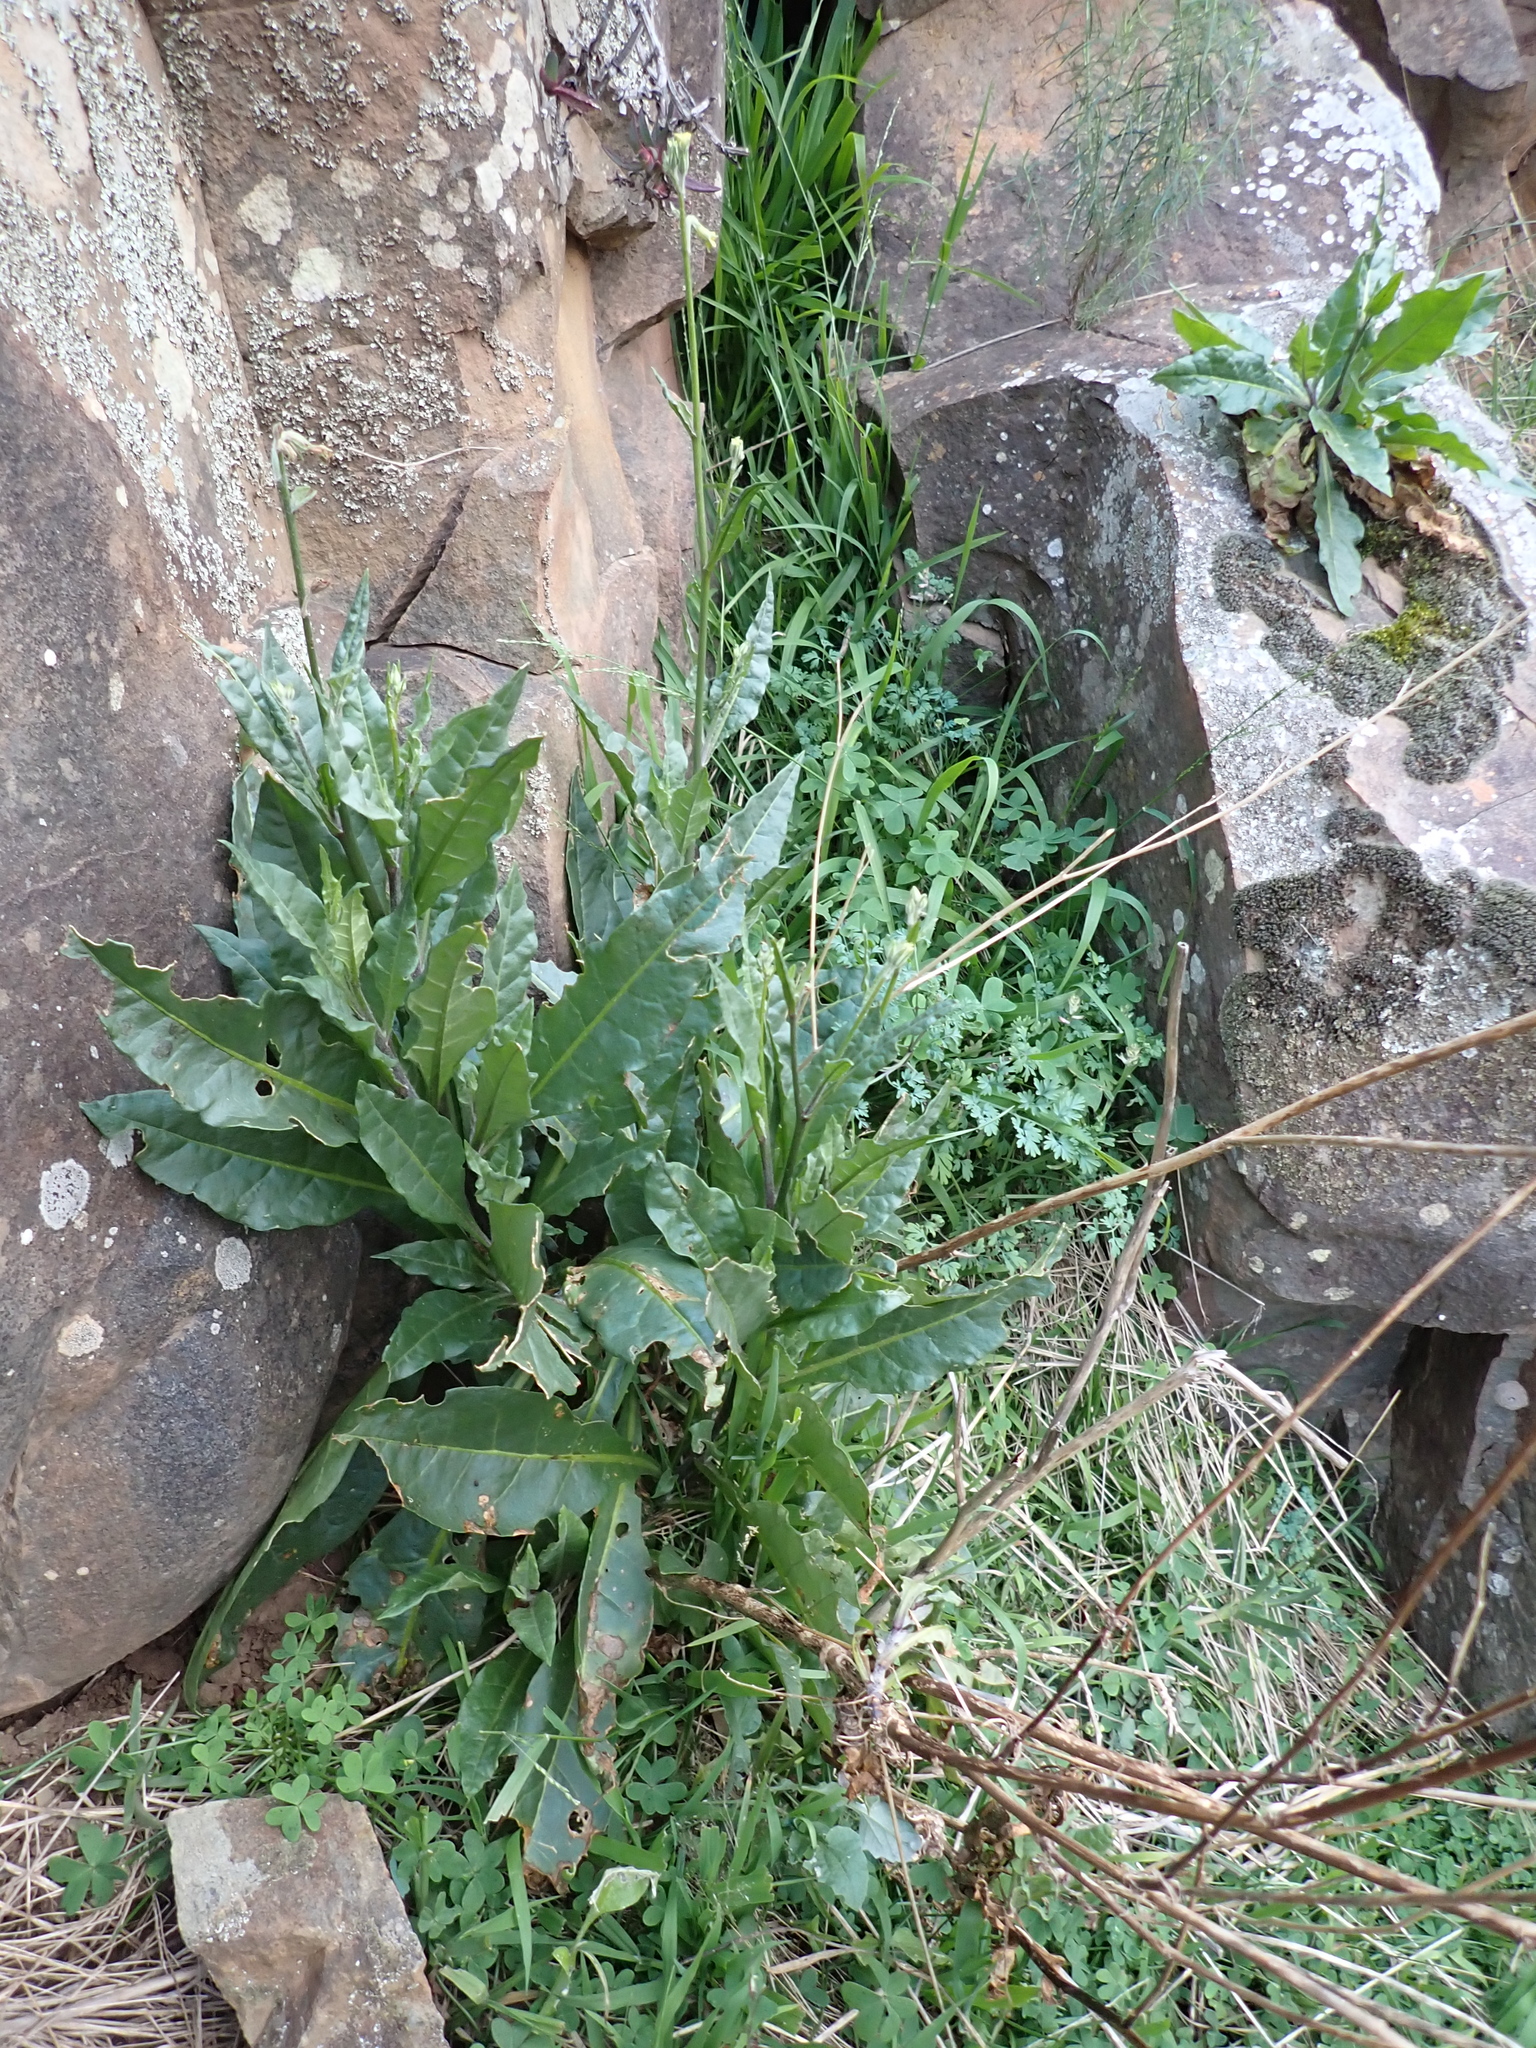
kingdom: Plantae
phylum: Tracheophyta
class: Magnoliopsida
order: Solanales
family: Solanaceae
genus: Nicotiana
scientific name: Nicotiana suaveolens
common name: Australian tobacco
